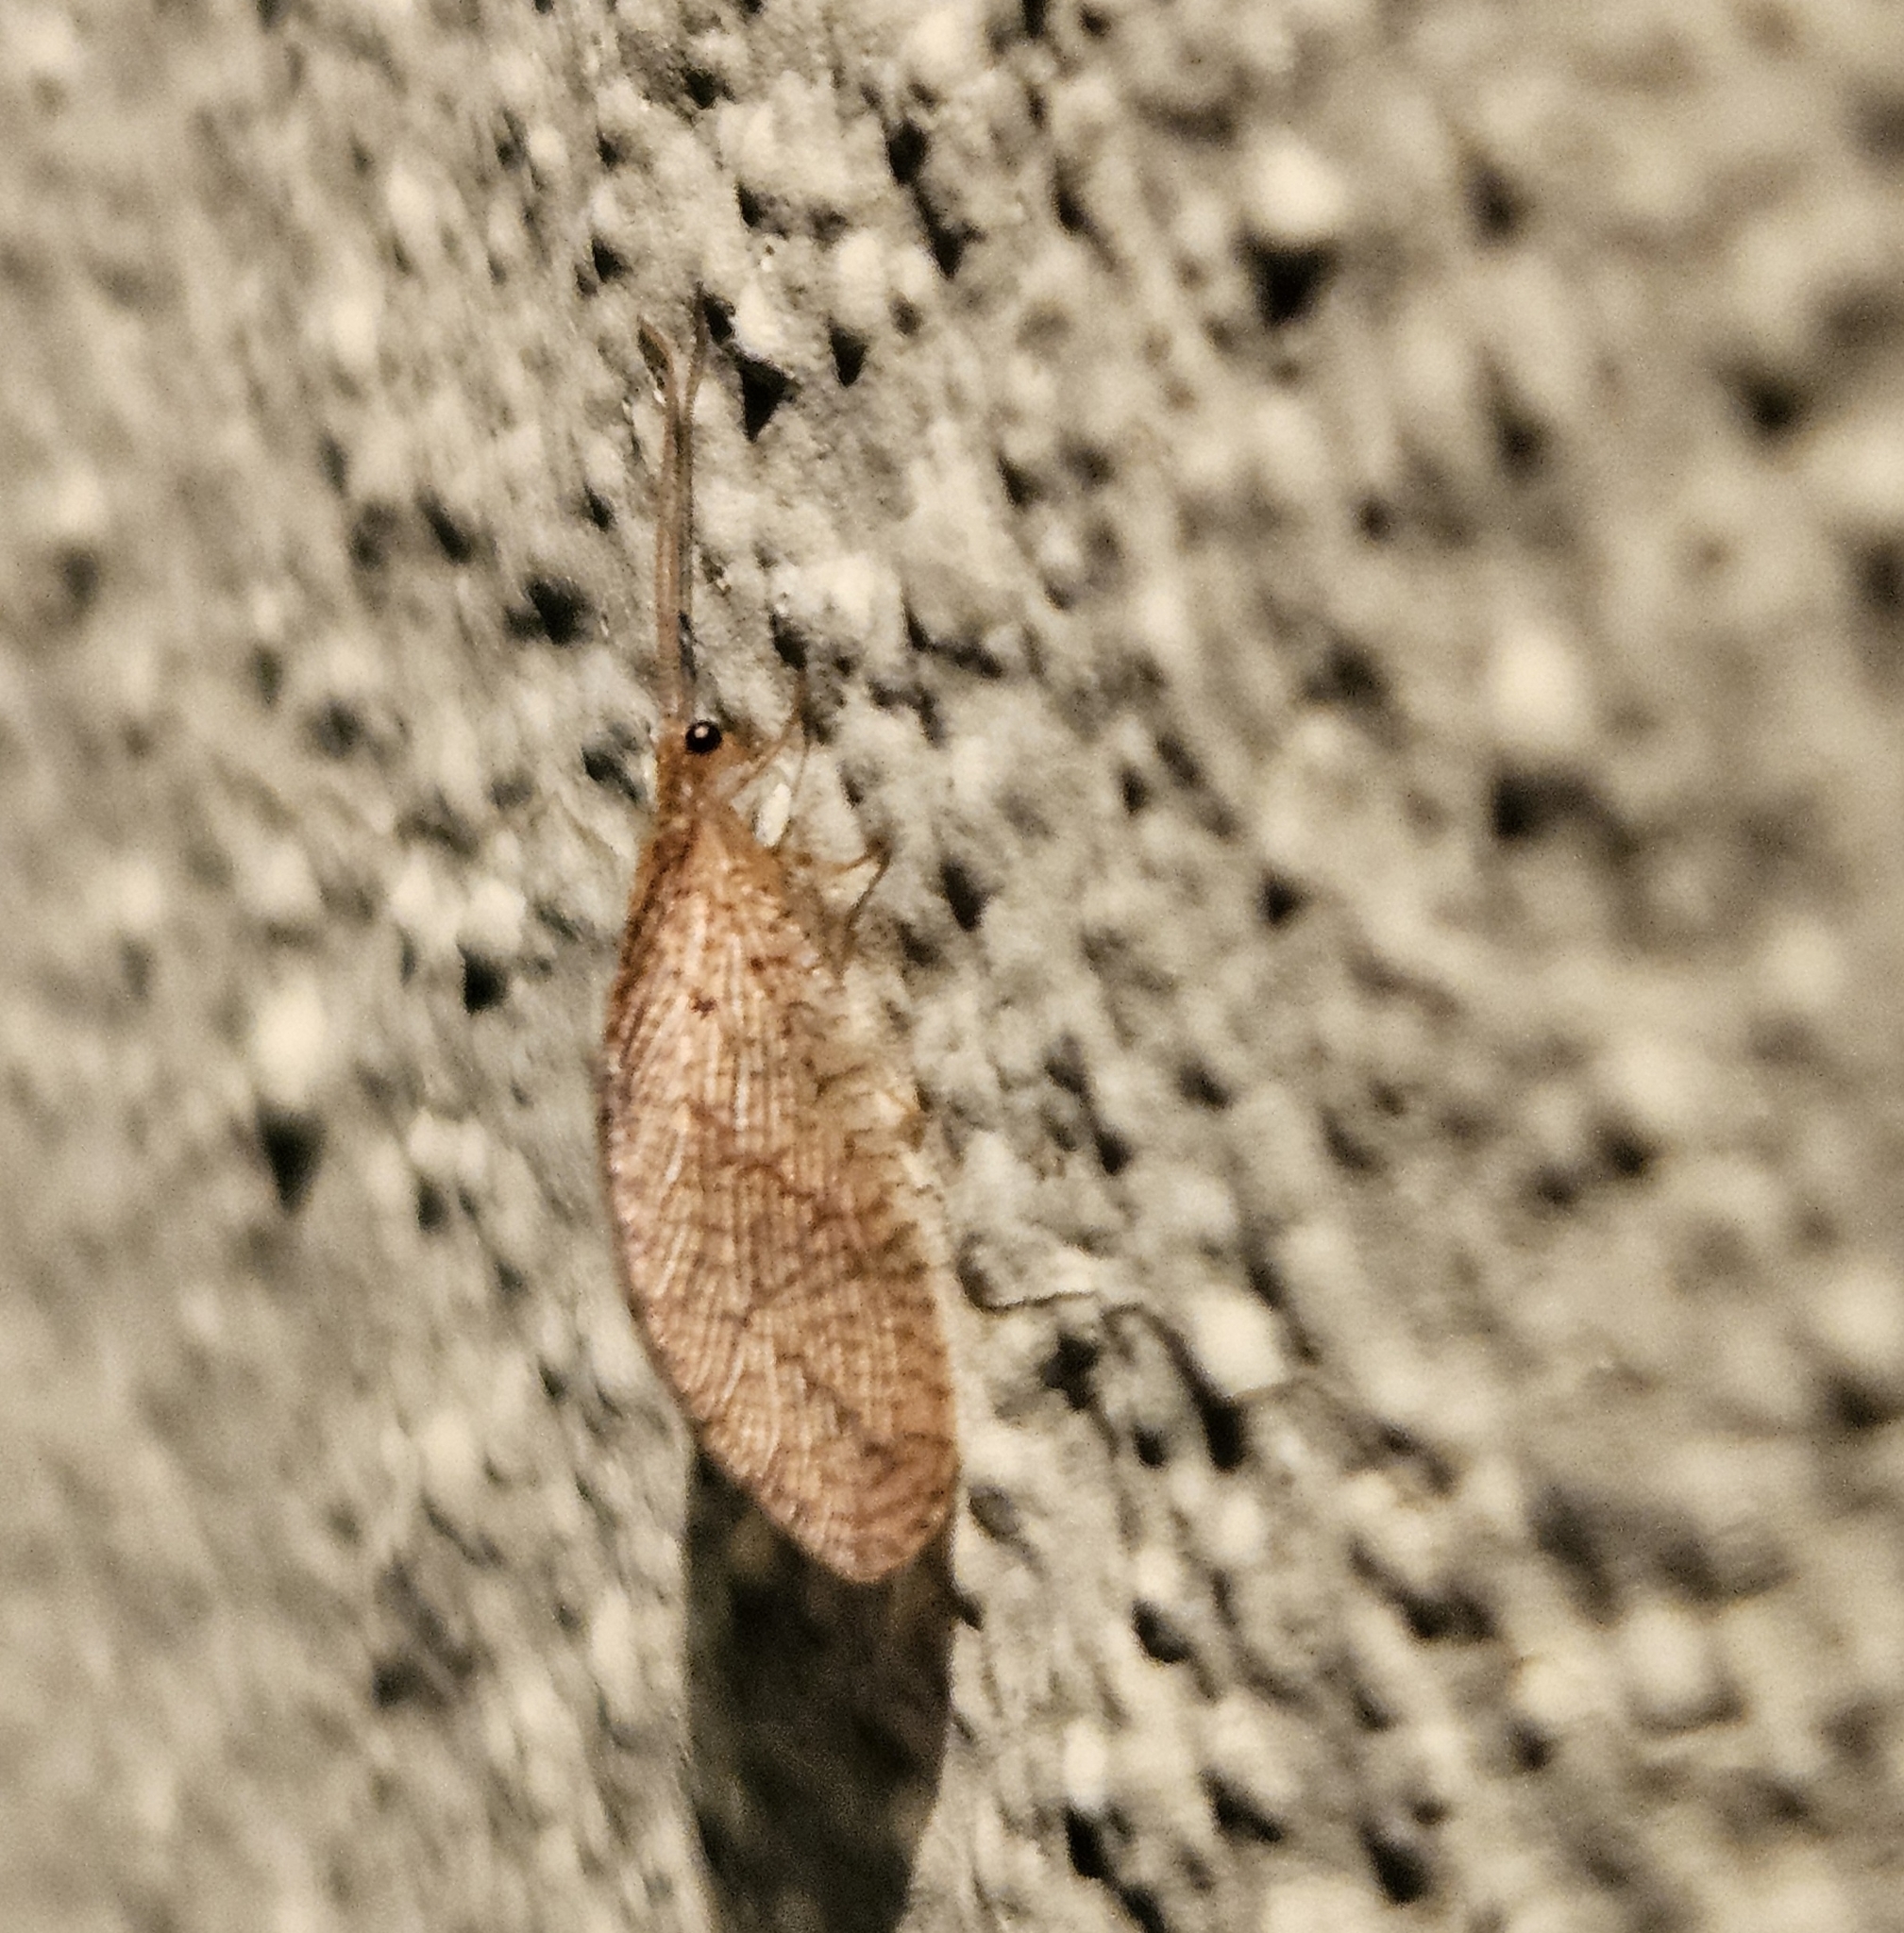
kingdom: Animalia
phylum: Arthropoda
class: Insecta
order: Neuroptera
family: Hemerobiidae
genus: Micromus
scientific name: Micromus posticus
